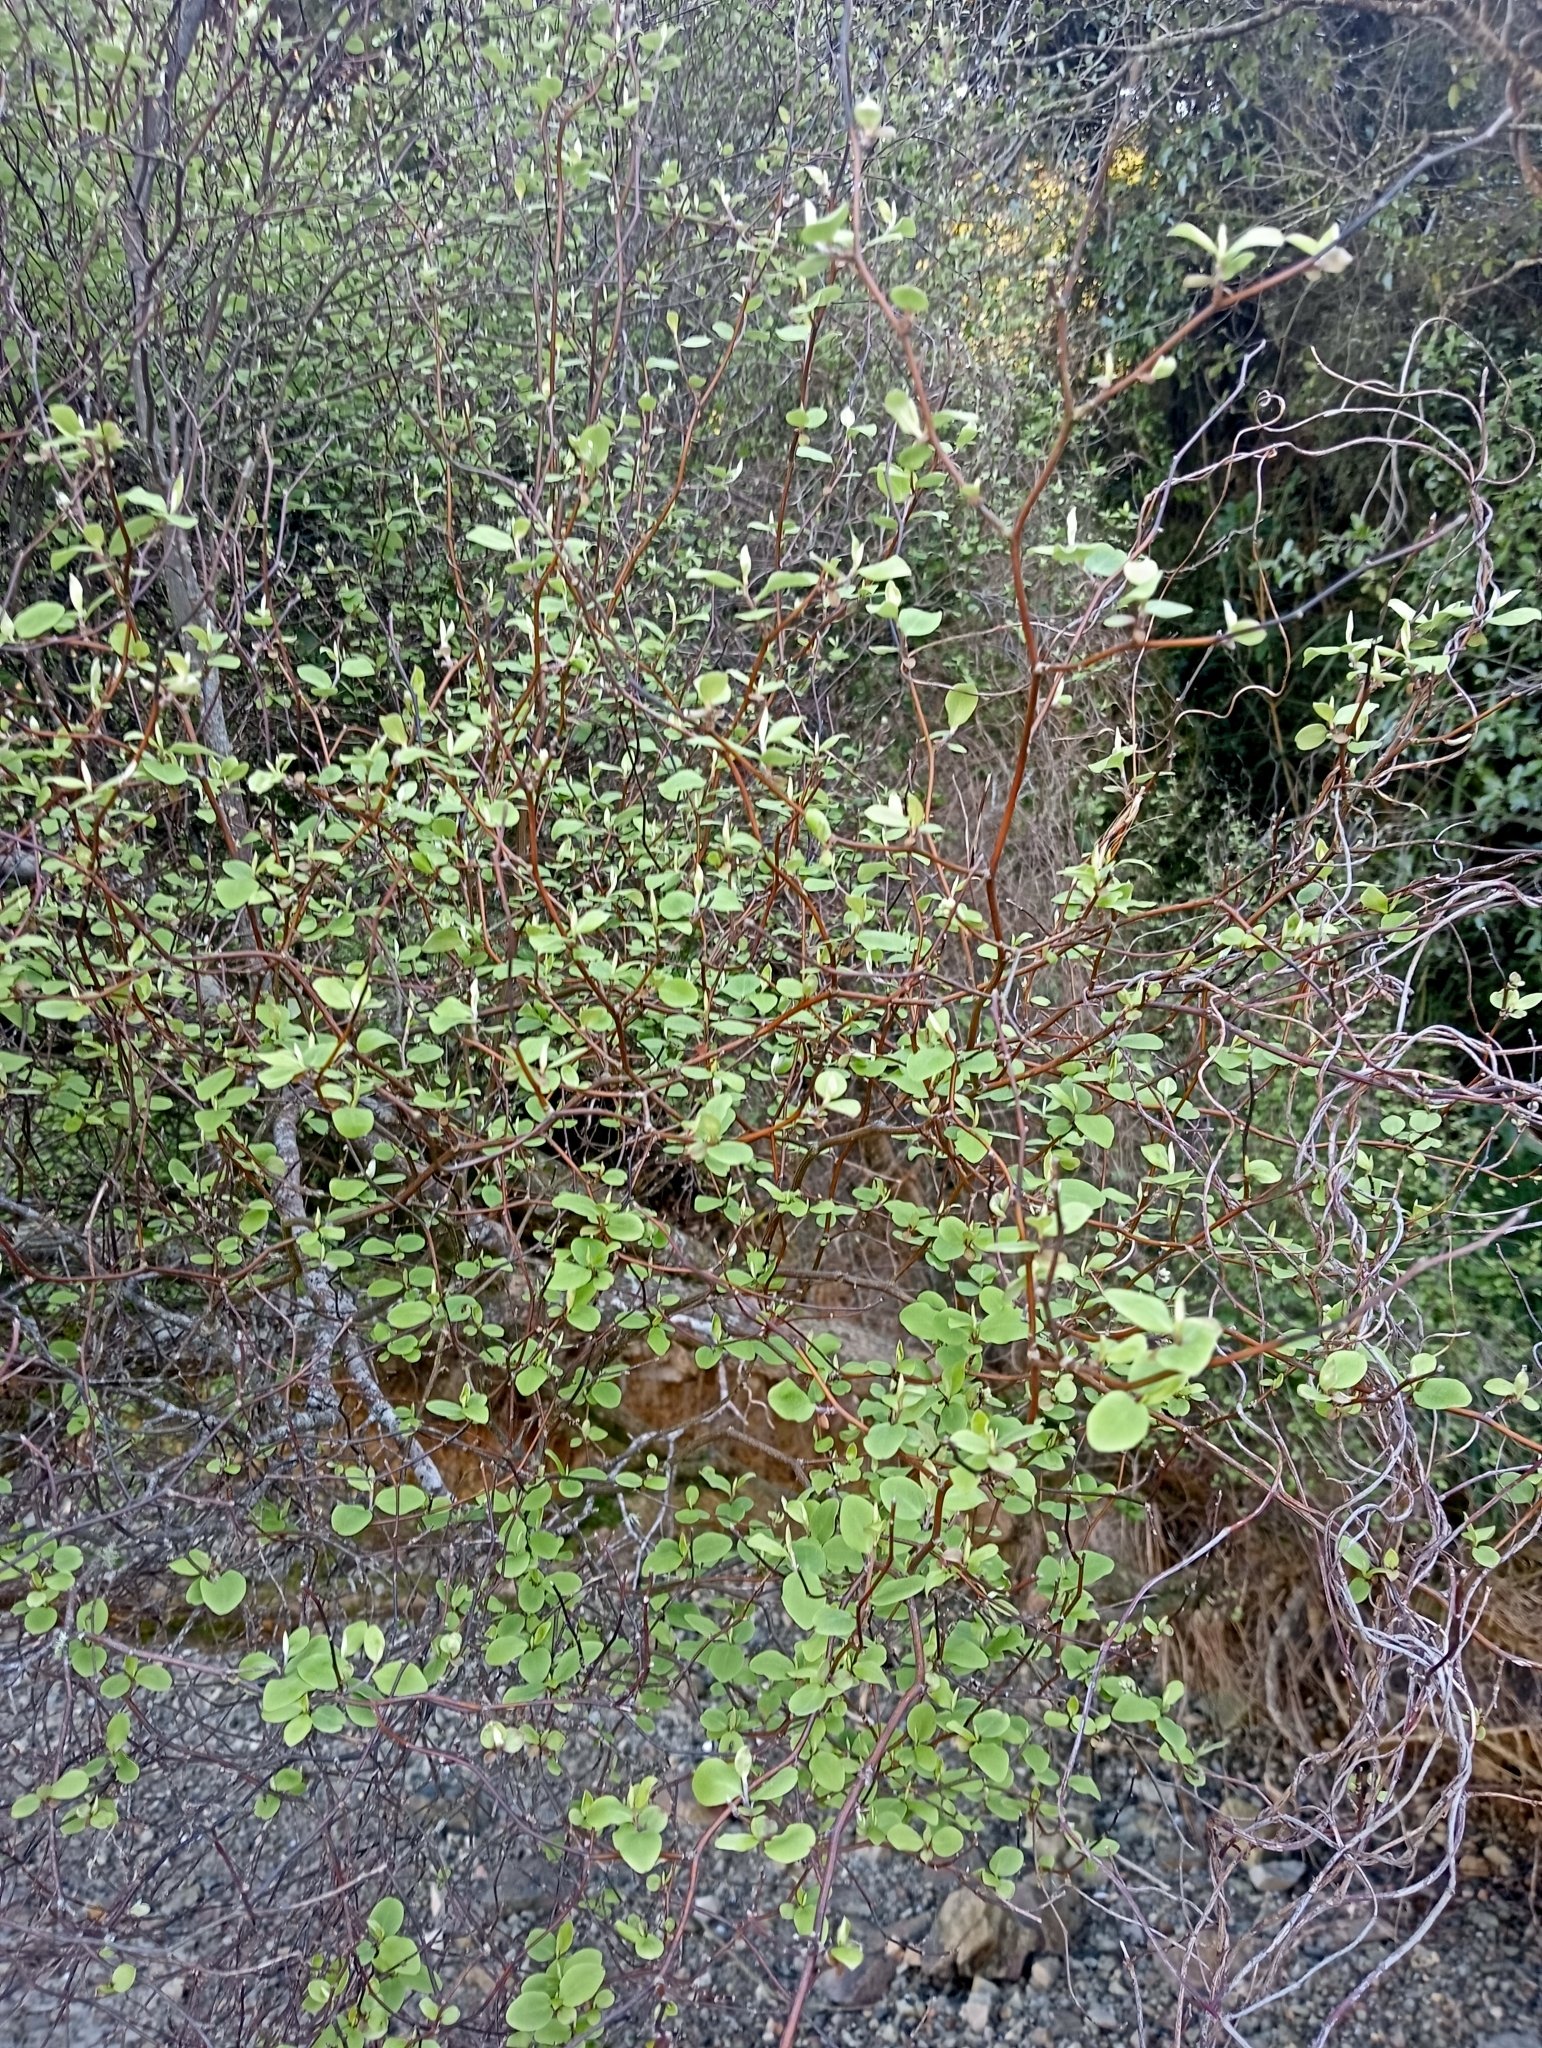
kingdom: Plantae
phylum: Tracheophyta
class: Magnoliopsida
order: Asterales
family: Asteraceae
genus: Olearia
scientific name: Olearia fragrantissima
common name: Fragrant tree daisy
